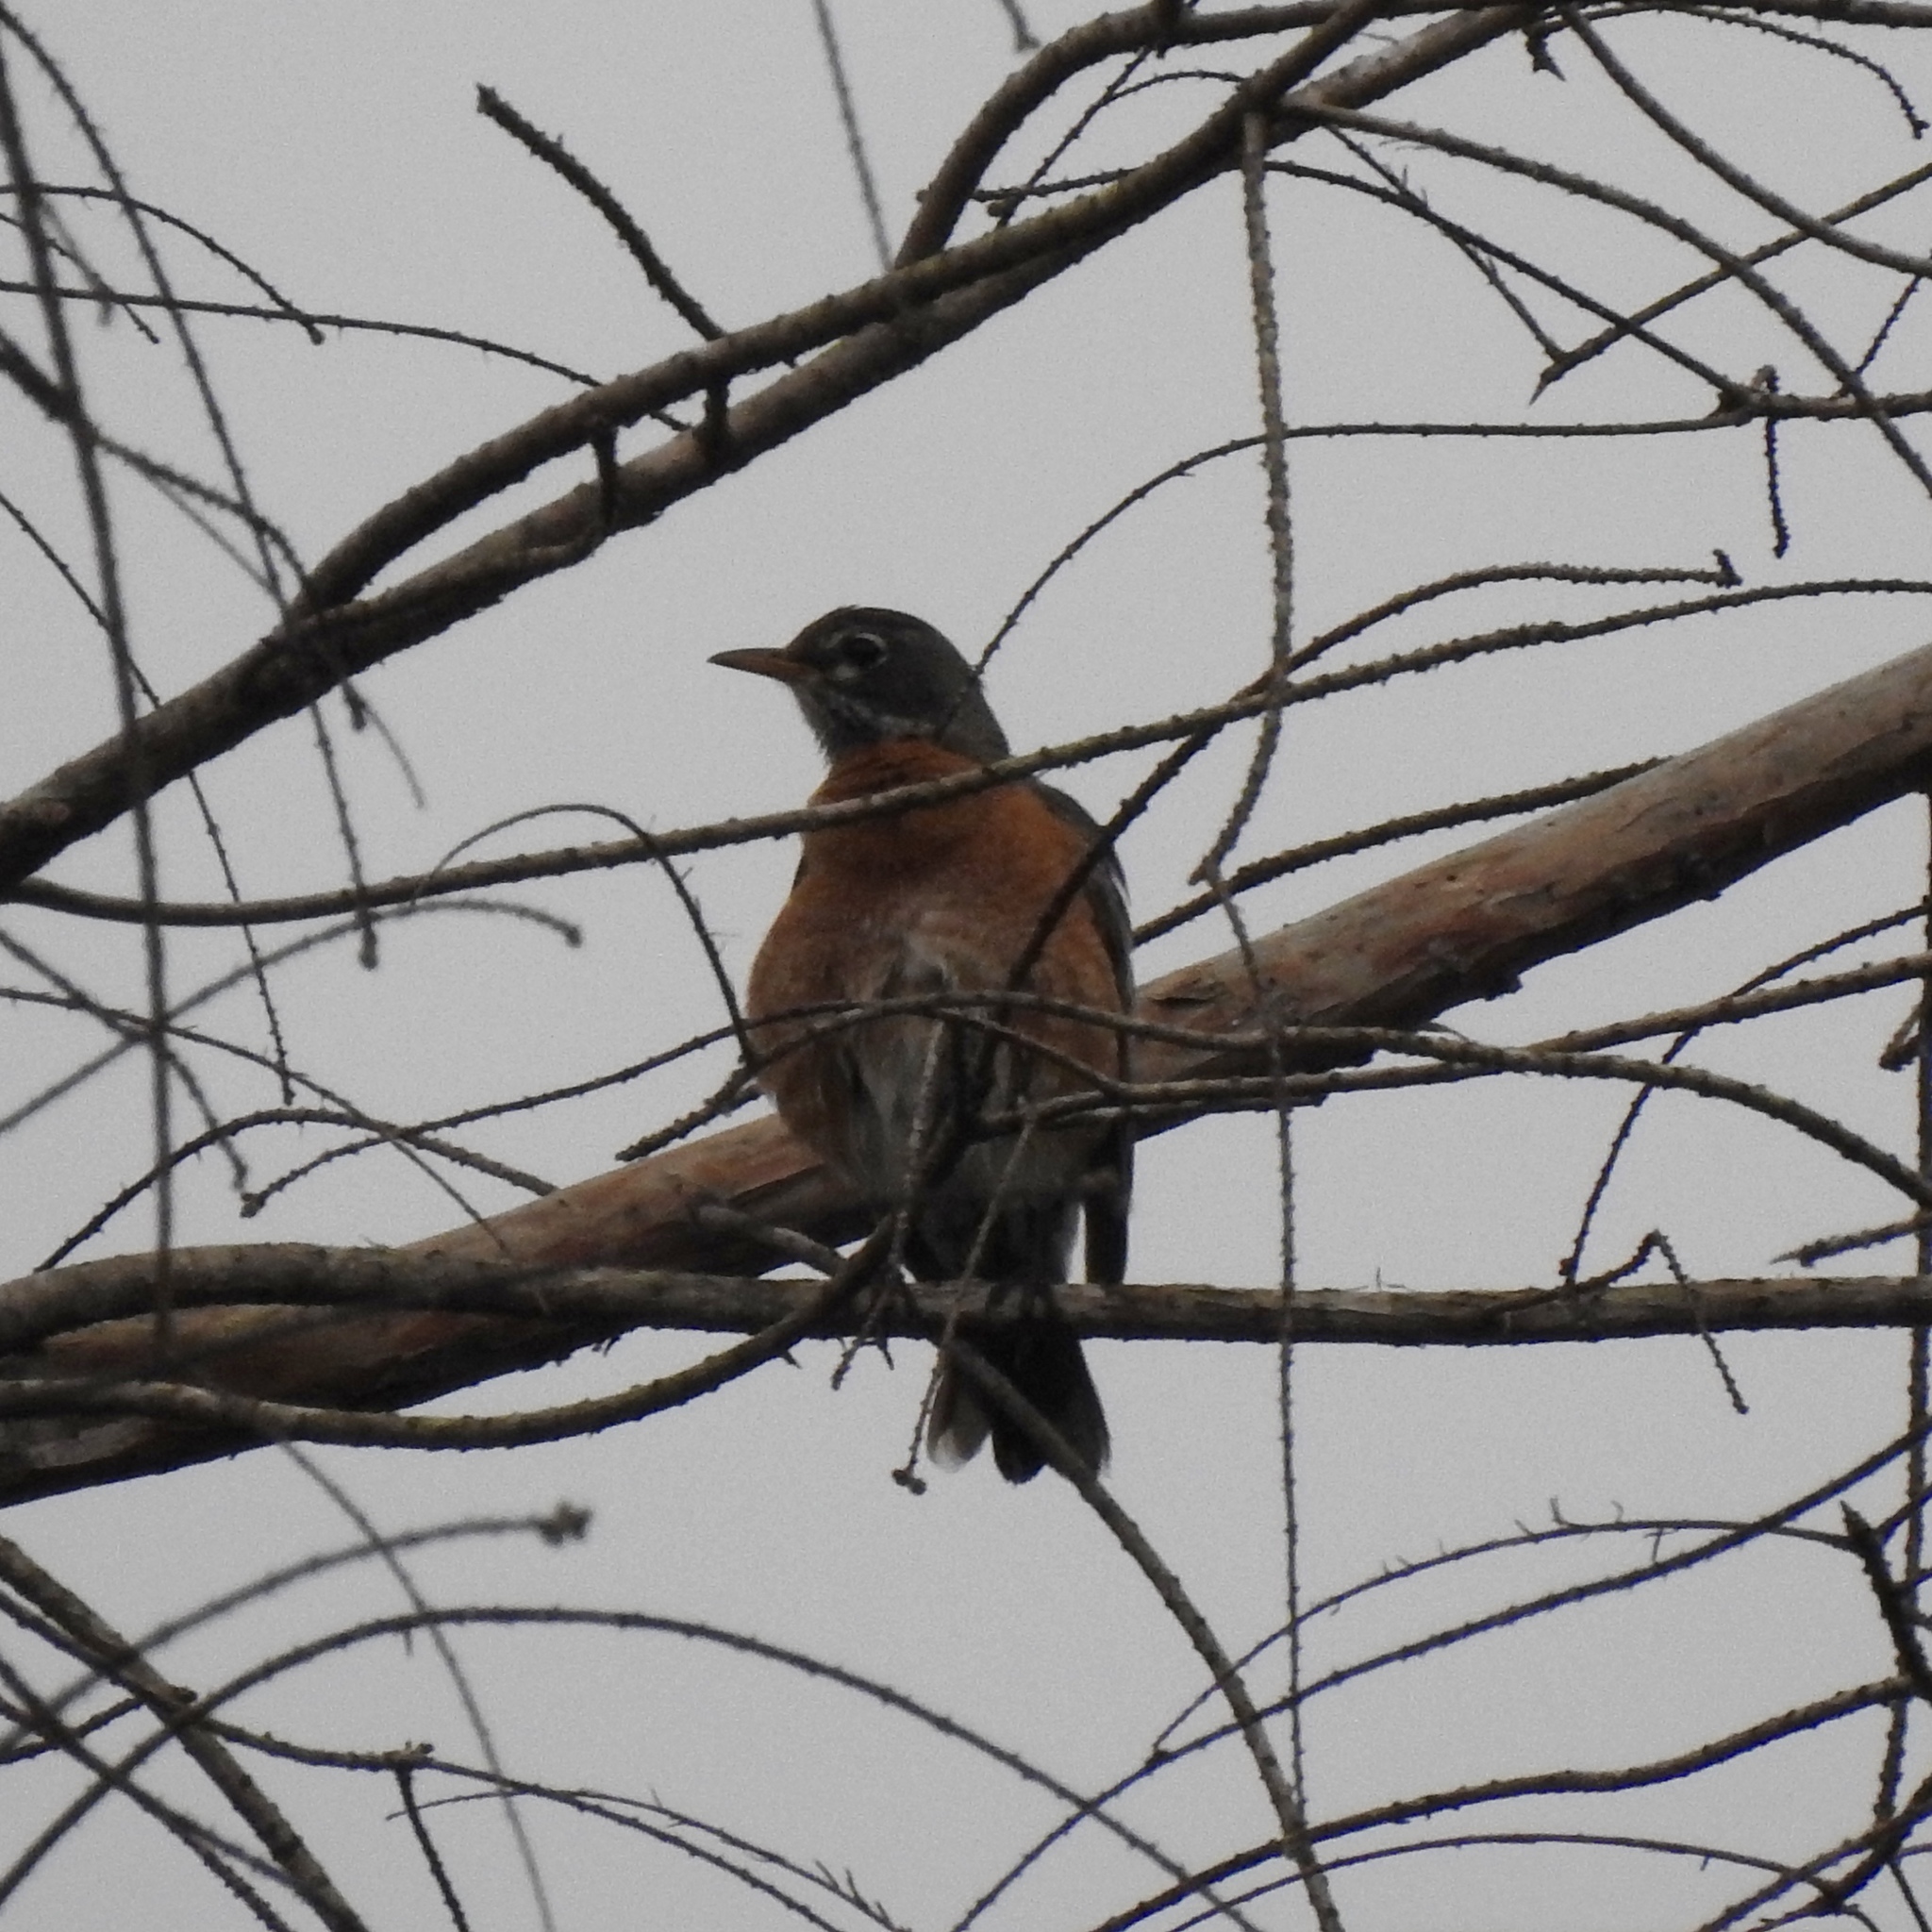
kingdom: Animalia
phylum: Chordata
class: Aves
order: Passeriformes
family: Turdidae
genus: Turdus
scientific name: Turdus migratorius
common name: American robin
